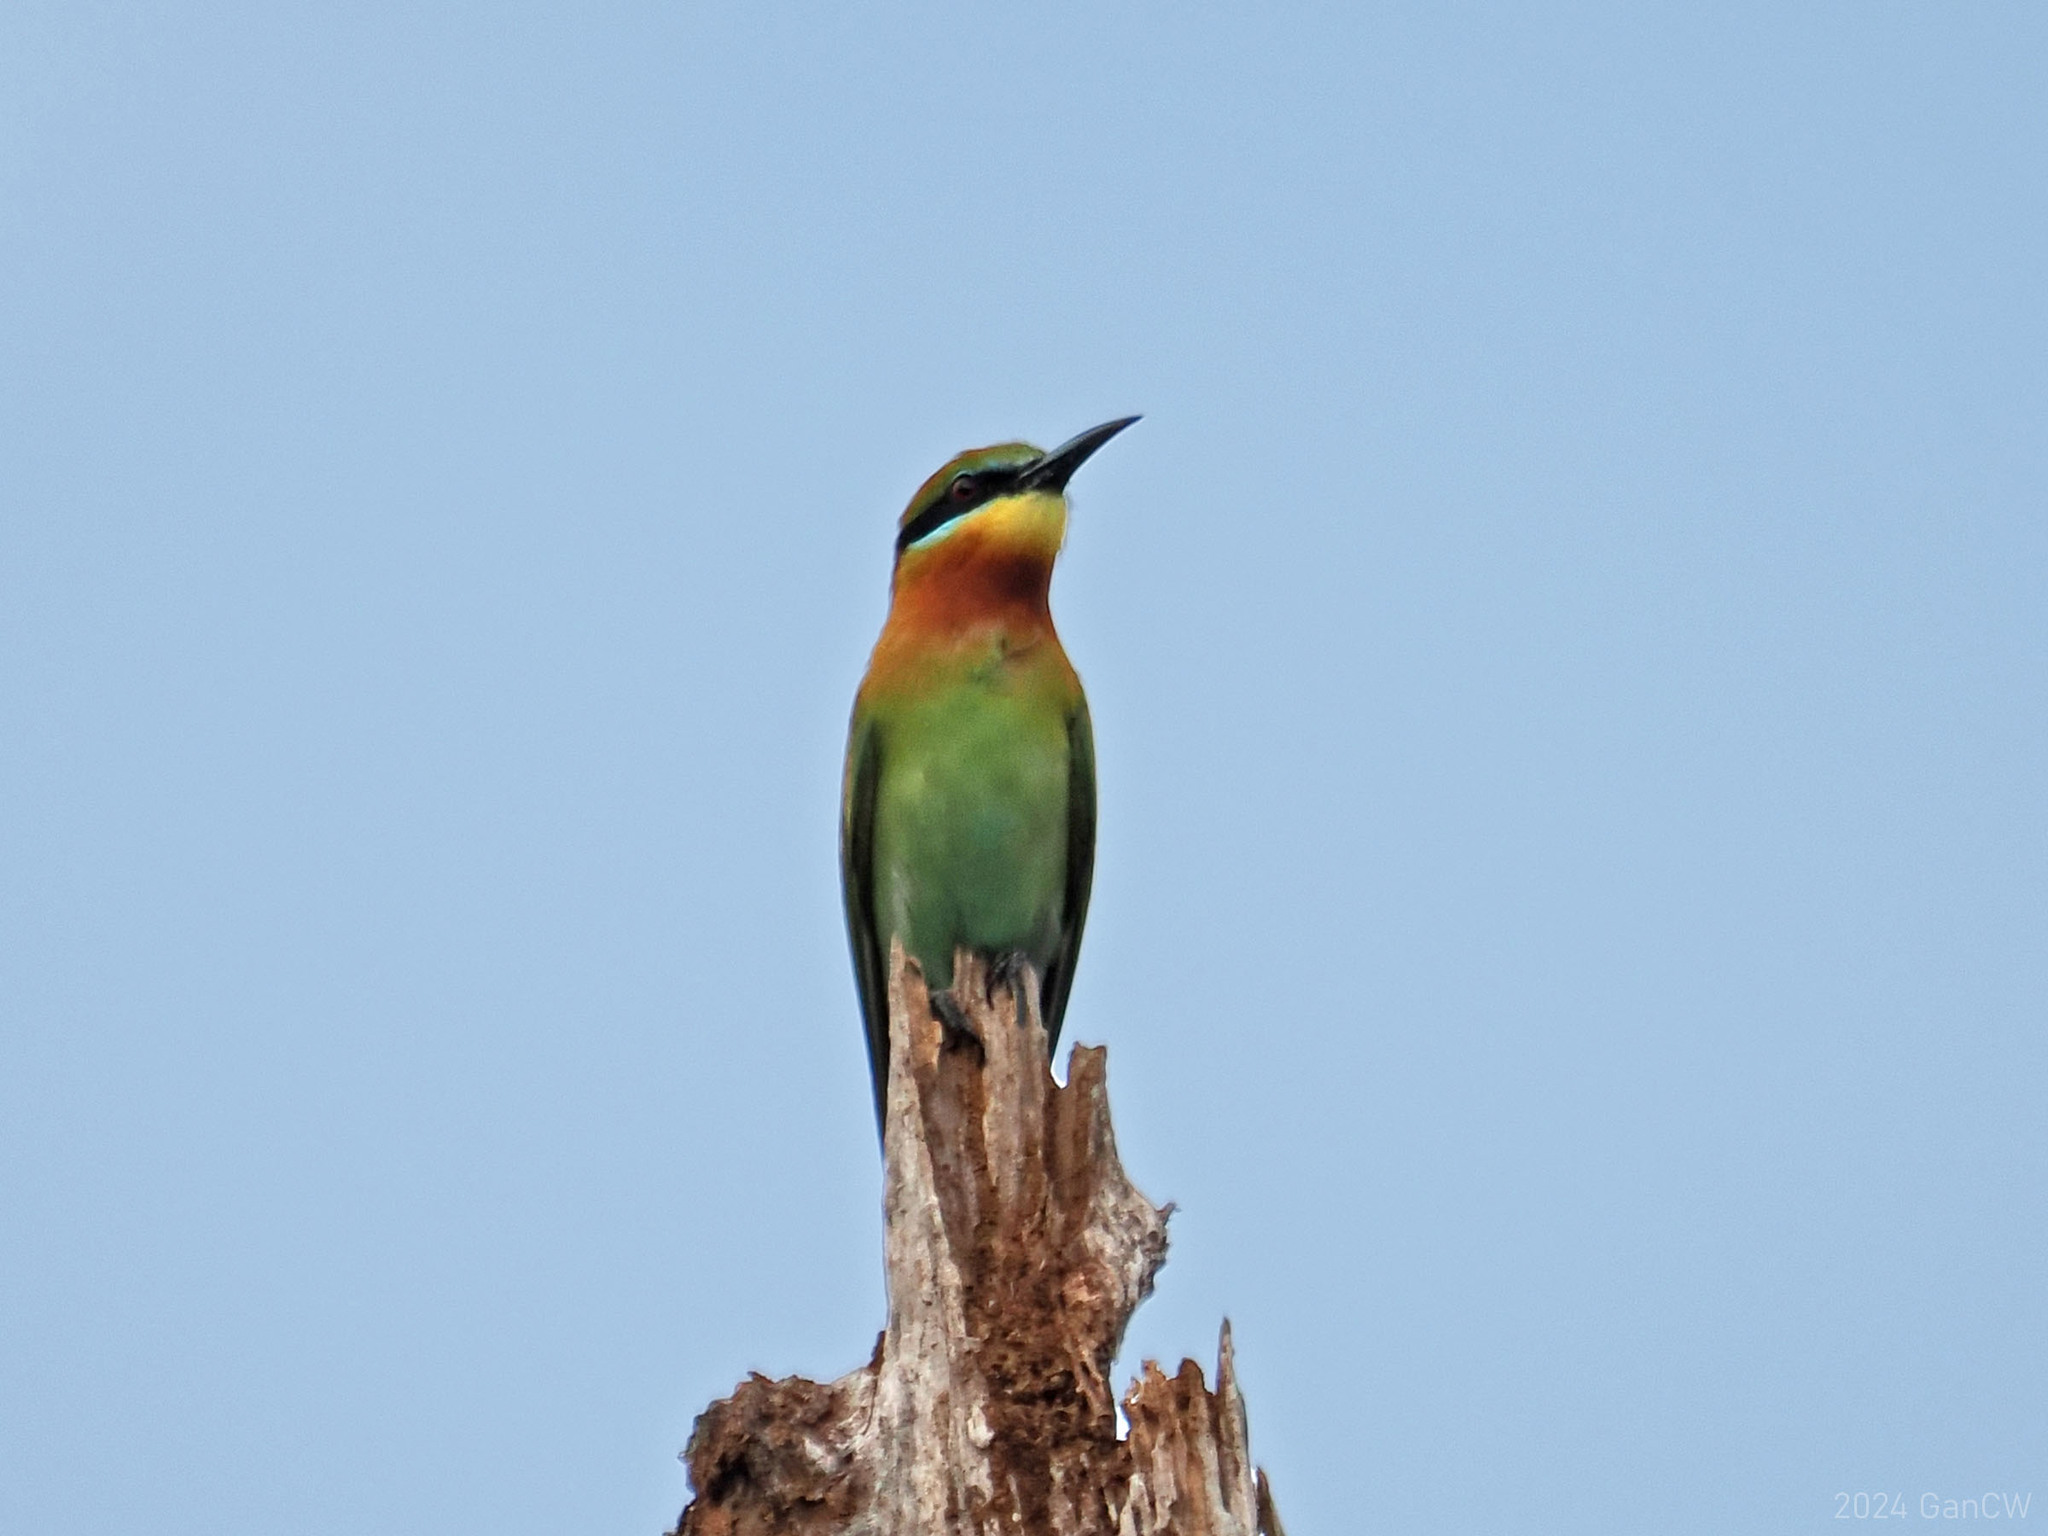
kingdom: Animalia
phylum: Chordata
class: Aves
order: Coraciiformes
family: Meropidae
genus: Merops
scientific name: Merops philippinus
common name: Blue-tailed bee-eater
